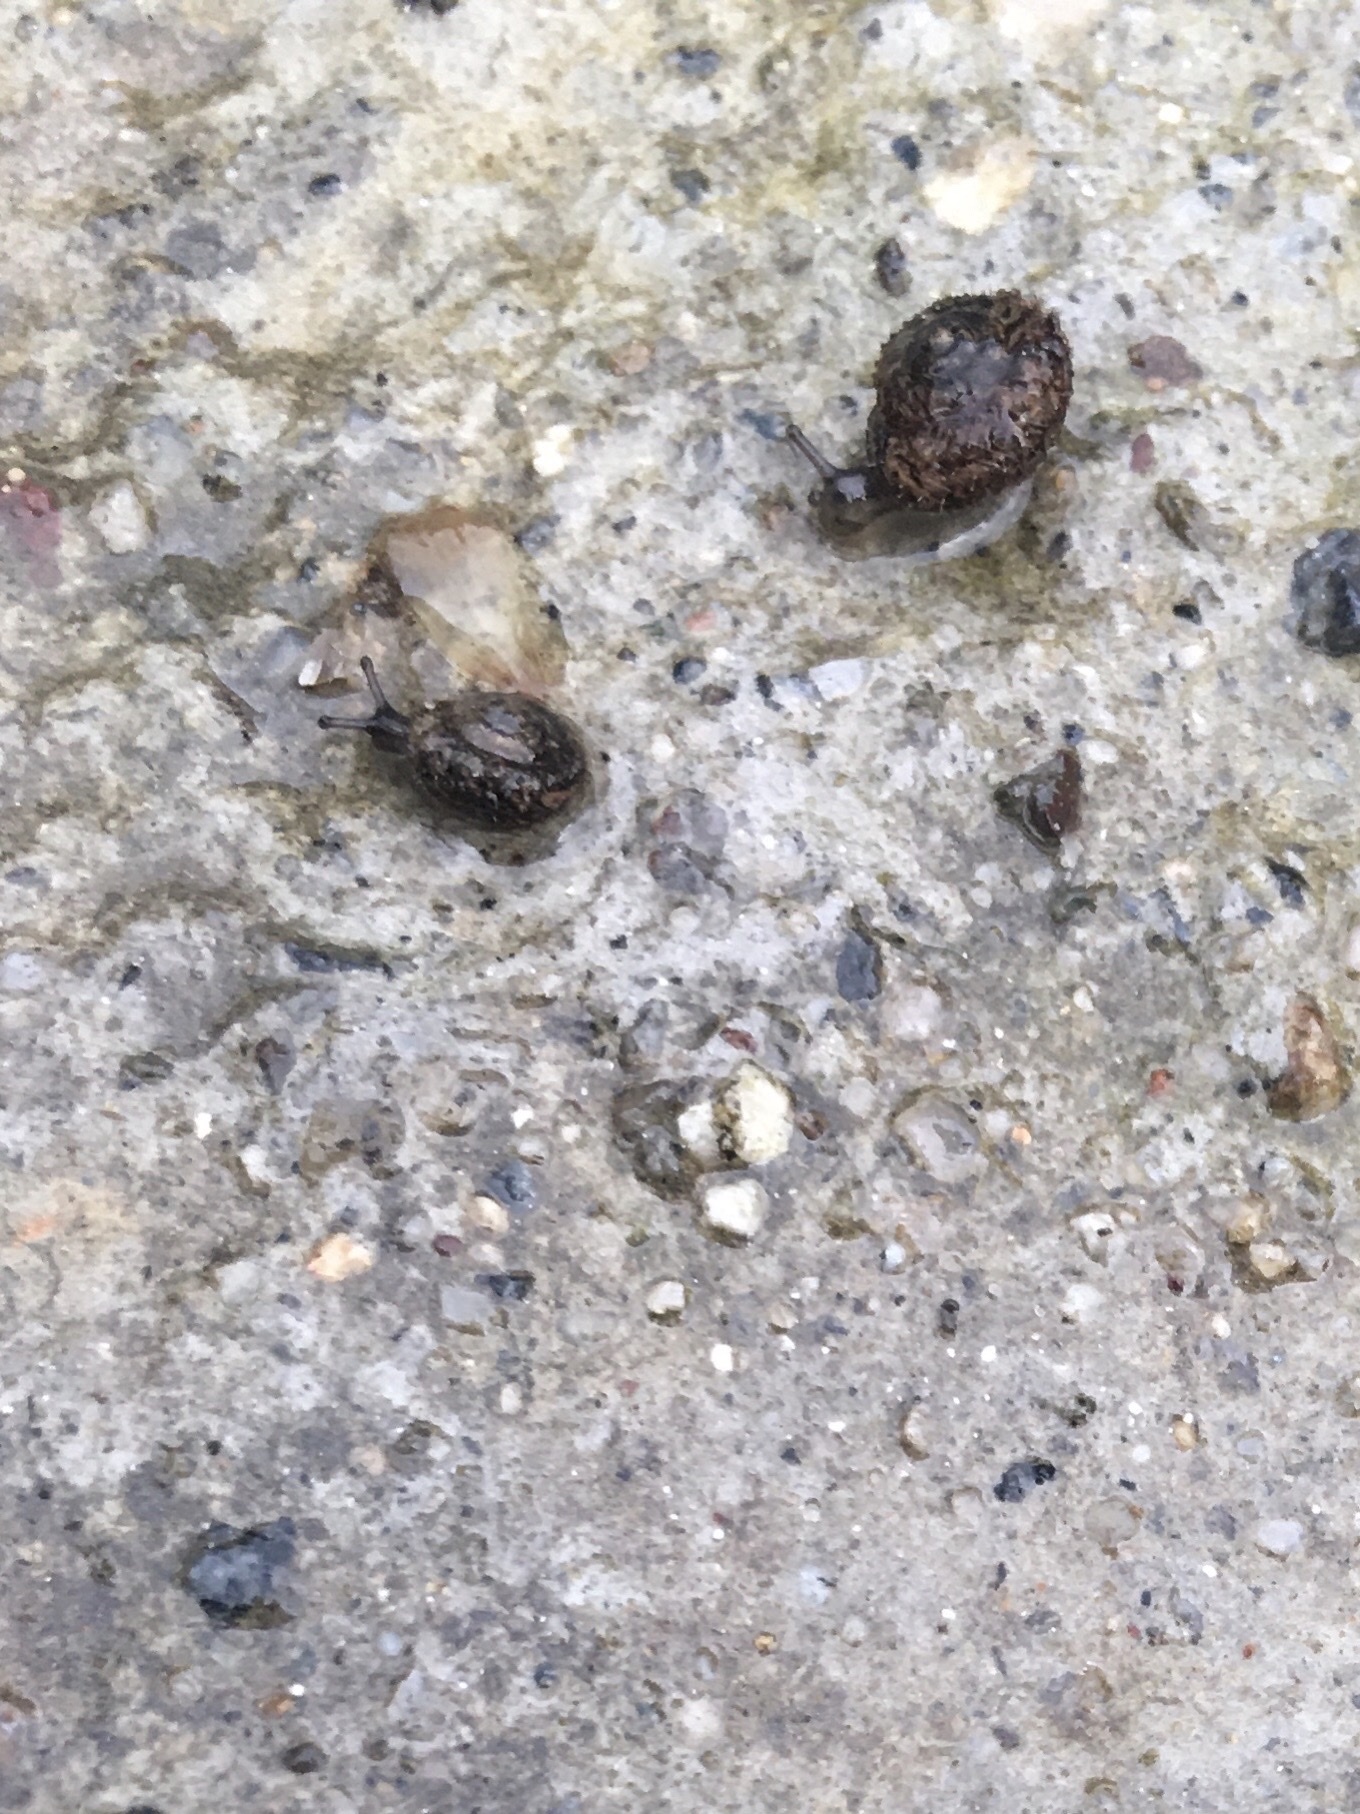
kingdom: Animalia
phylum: Mollusca
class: Gastropoda
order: Stylommatophora
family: Geomitridae
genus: Xerotricha
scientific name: Xerotricha conspurcata
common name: Snail
